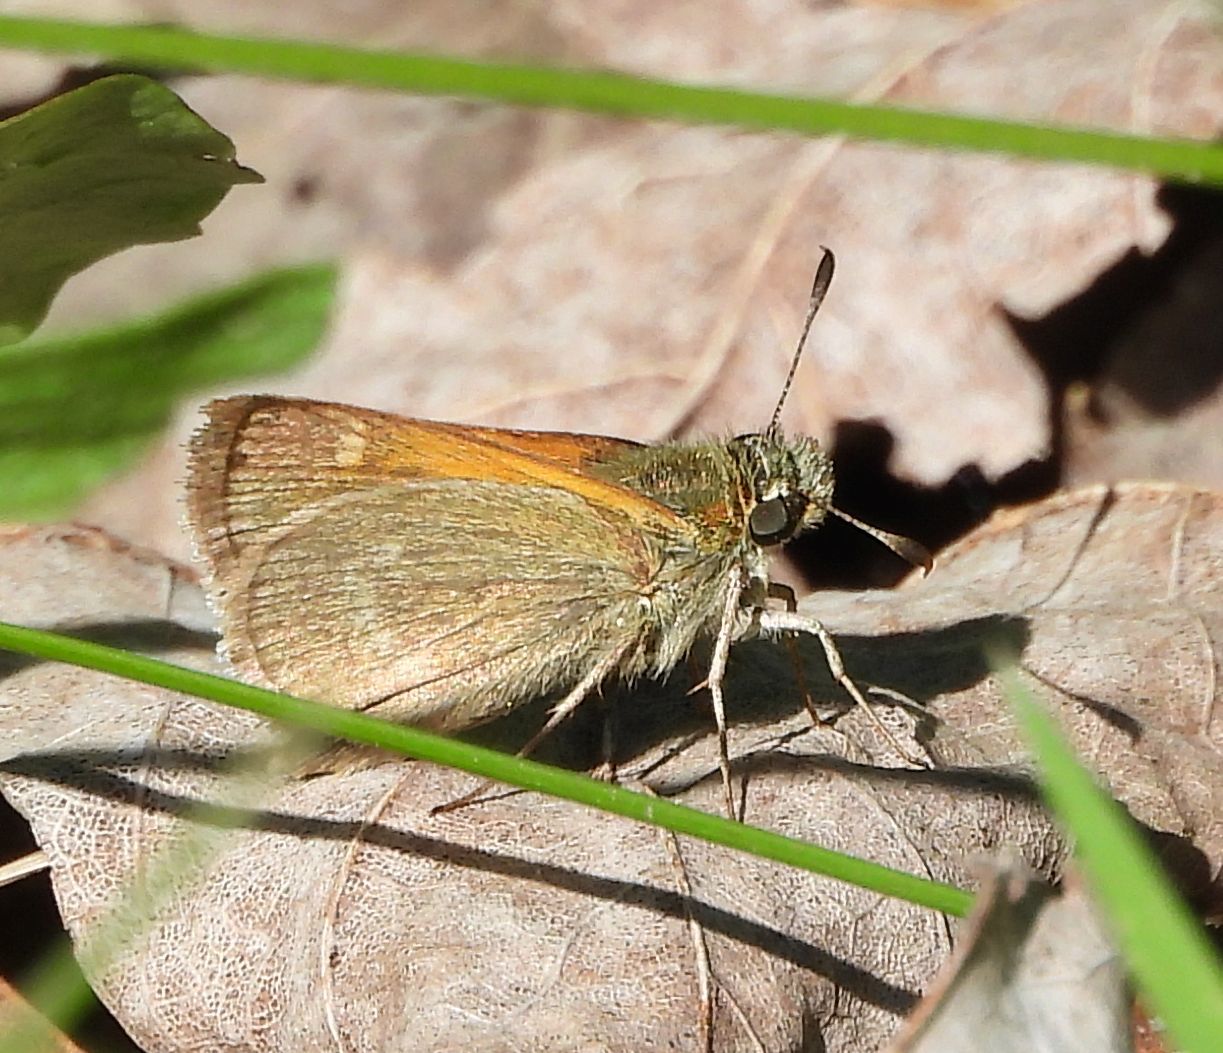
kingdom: Animalia
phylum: Arthropoda
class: Insecta
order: Lepidoptera
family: Hesperiidae
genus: Polites
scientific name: Polites themistocles
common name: Tawny-edged skipper
